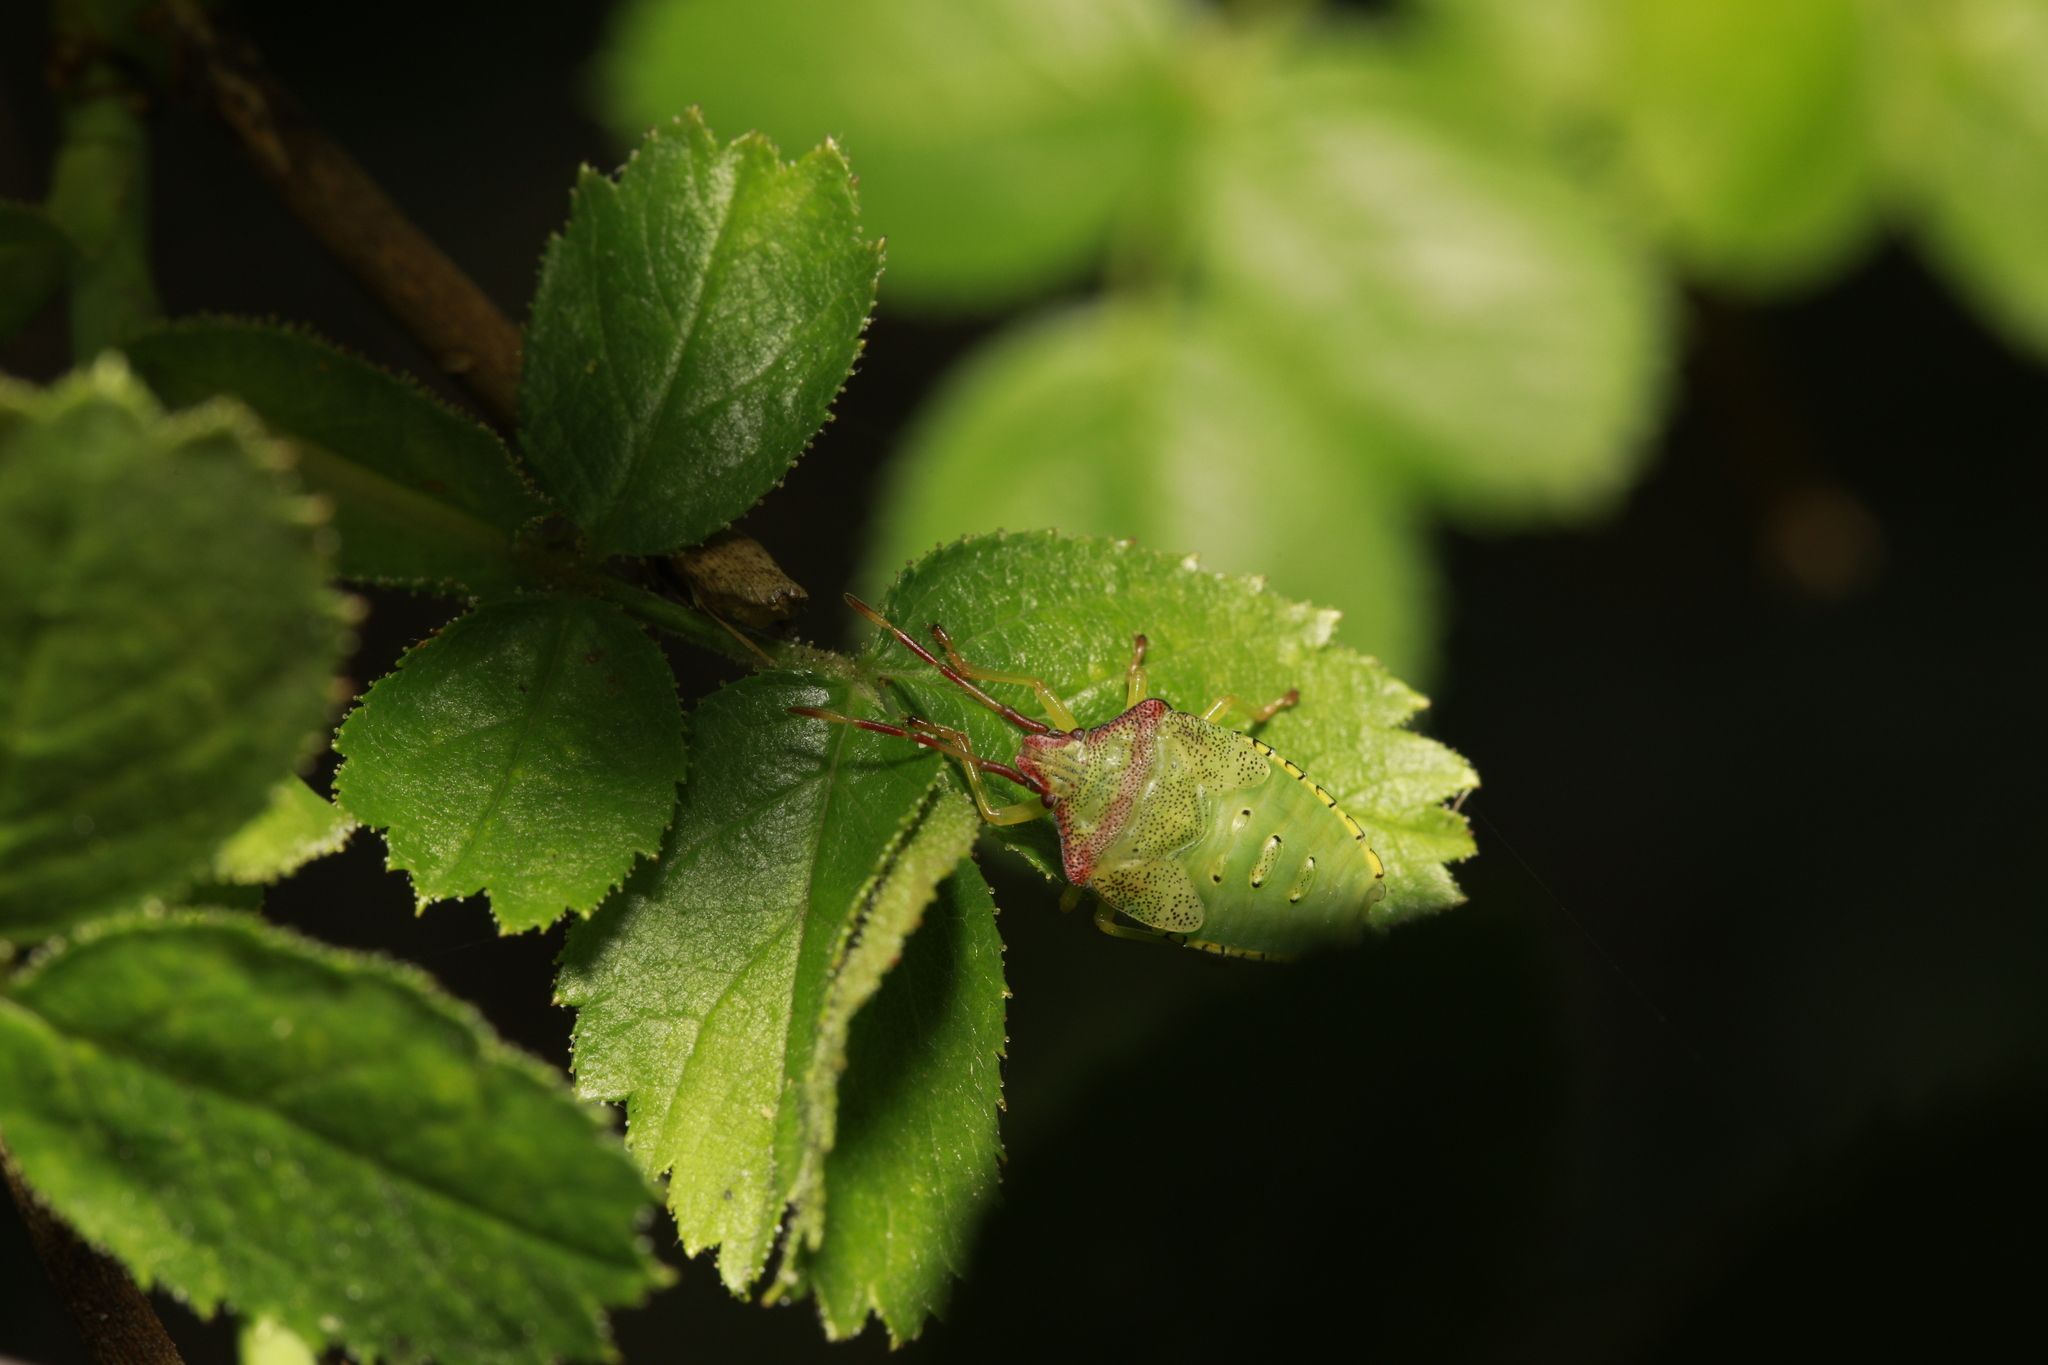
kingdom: Animalia
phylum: Arthropoda
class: Insecta
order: Hemiptera
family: Acanthosomatidae
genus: Acanthosoma
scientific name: Acanthosoma haemorrhoidale
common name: Hawthorn shieldbug
